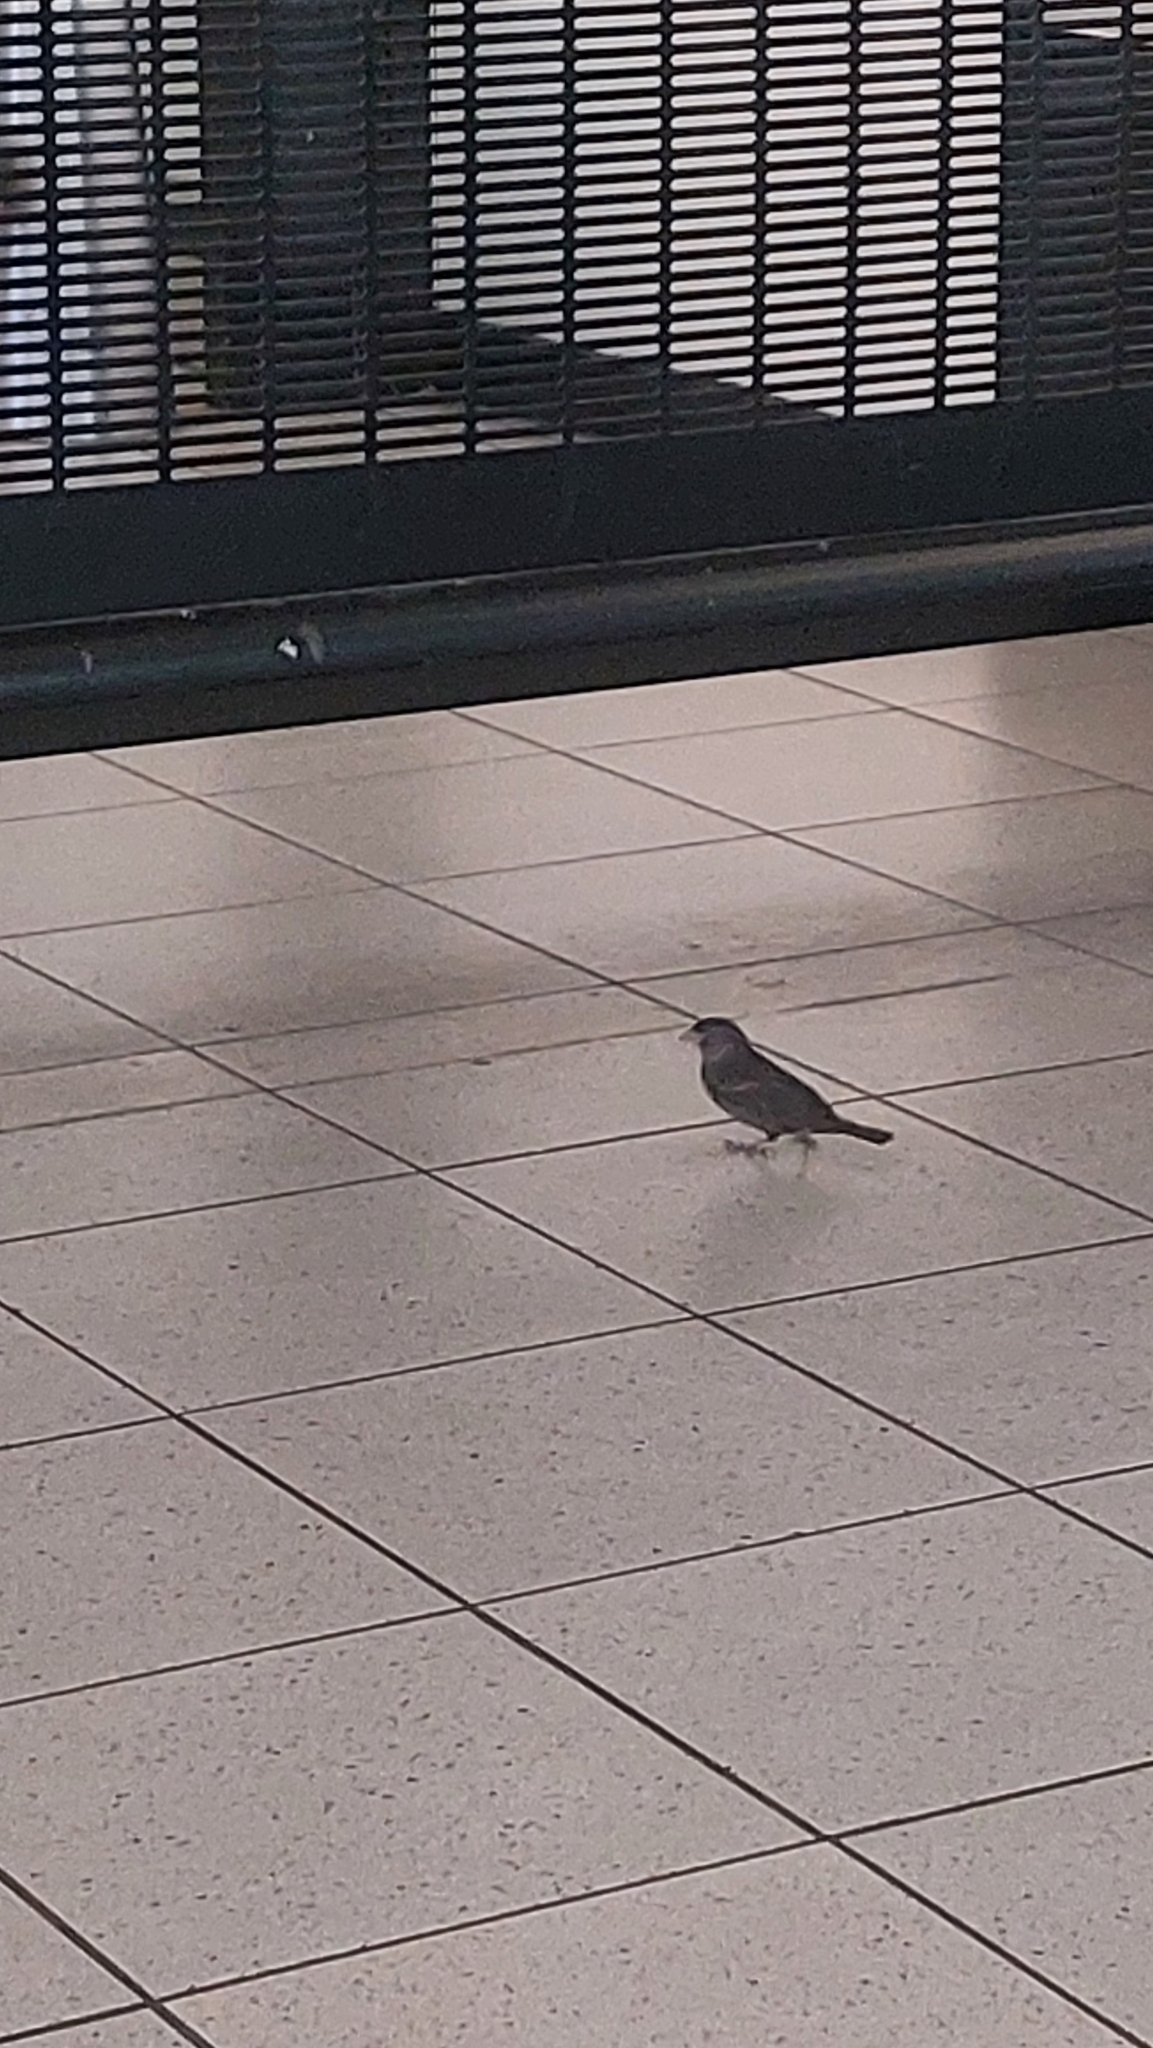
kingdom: Animalia
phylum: Chordata
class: Aves
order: Passeriformes
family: Passeridae
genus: Passer
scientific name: Passer domesticus
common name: House sparrow
